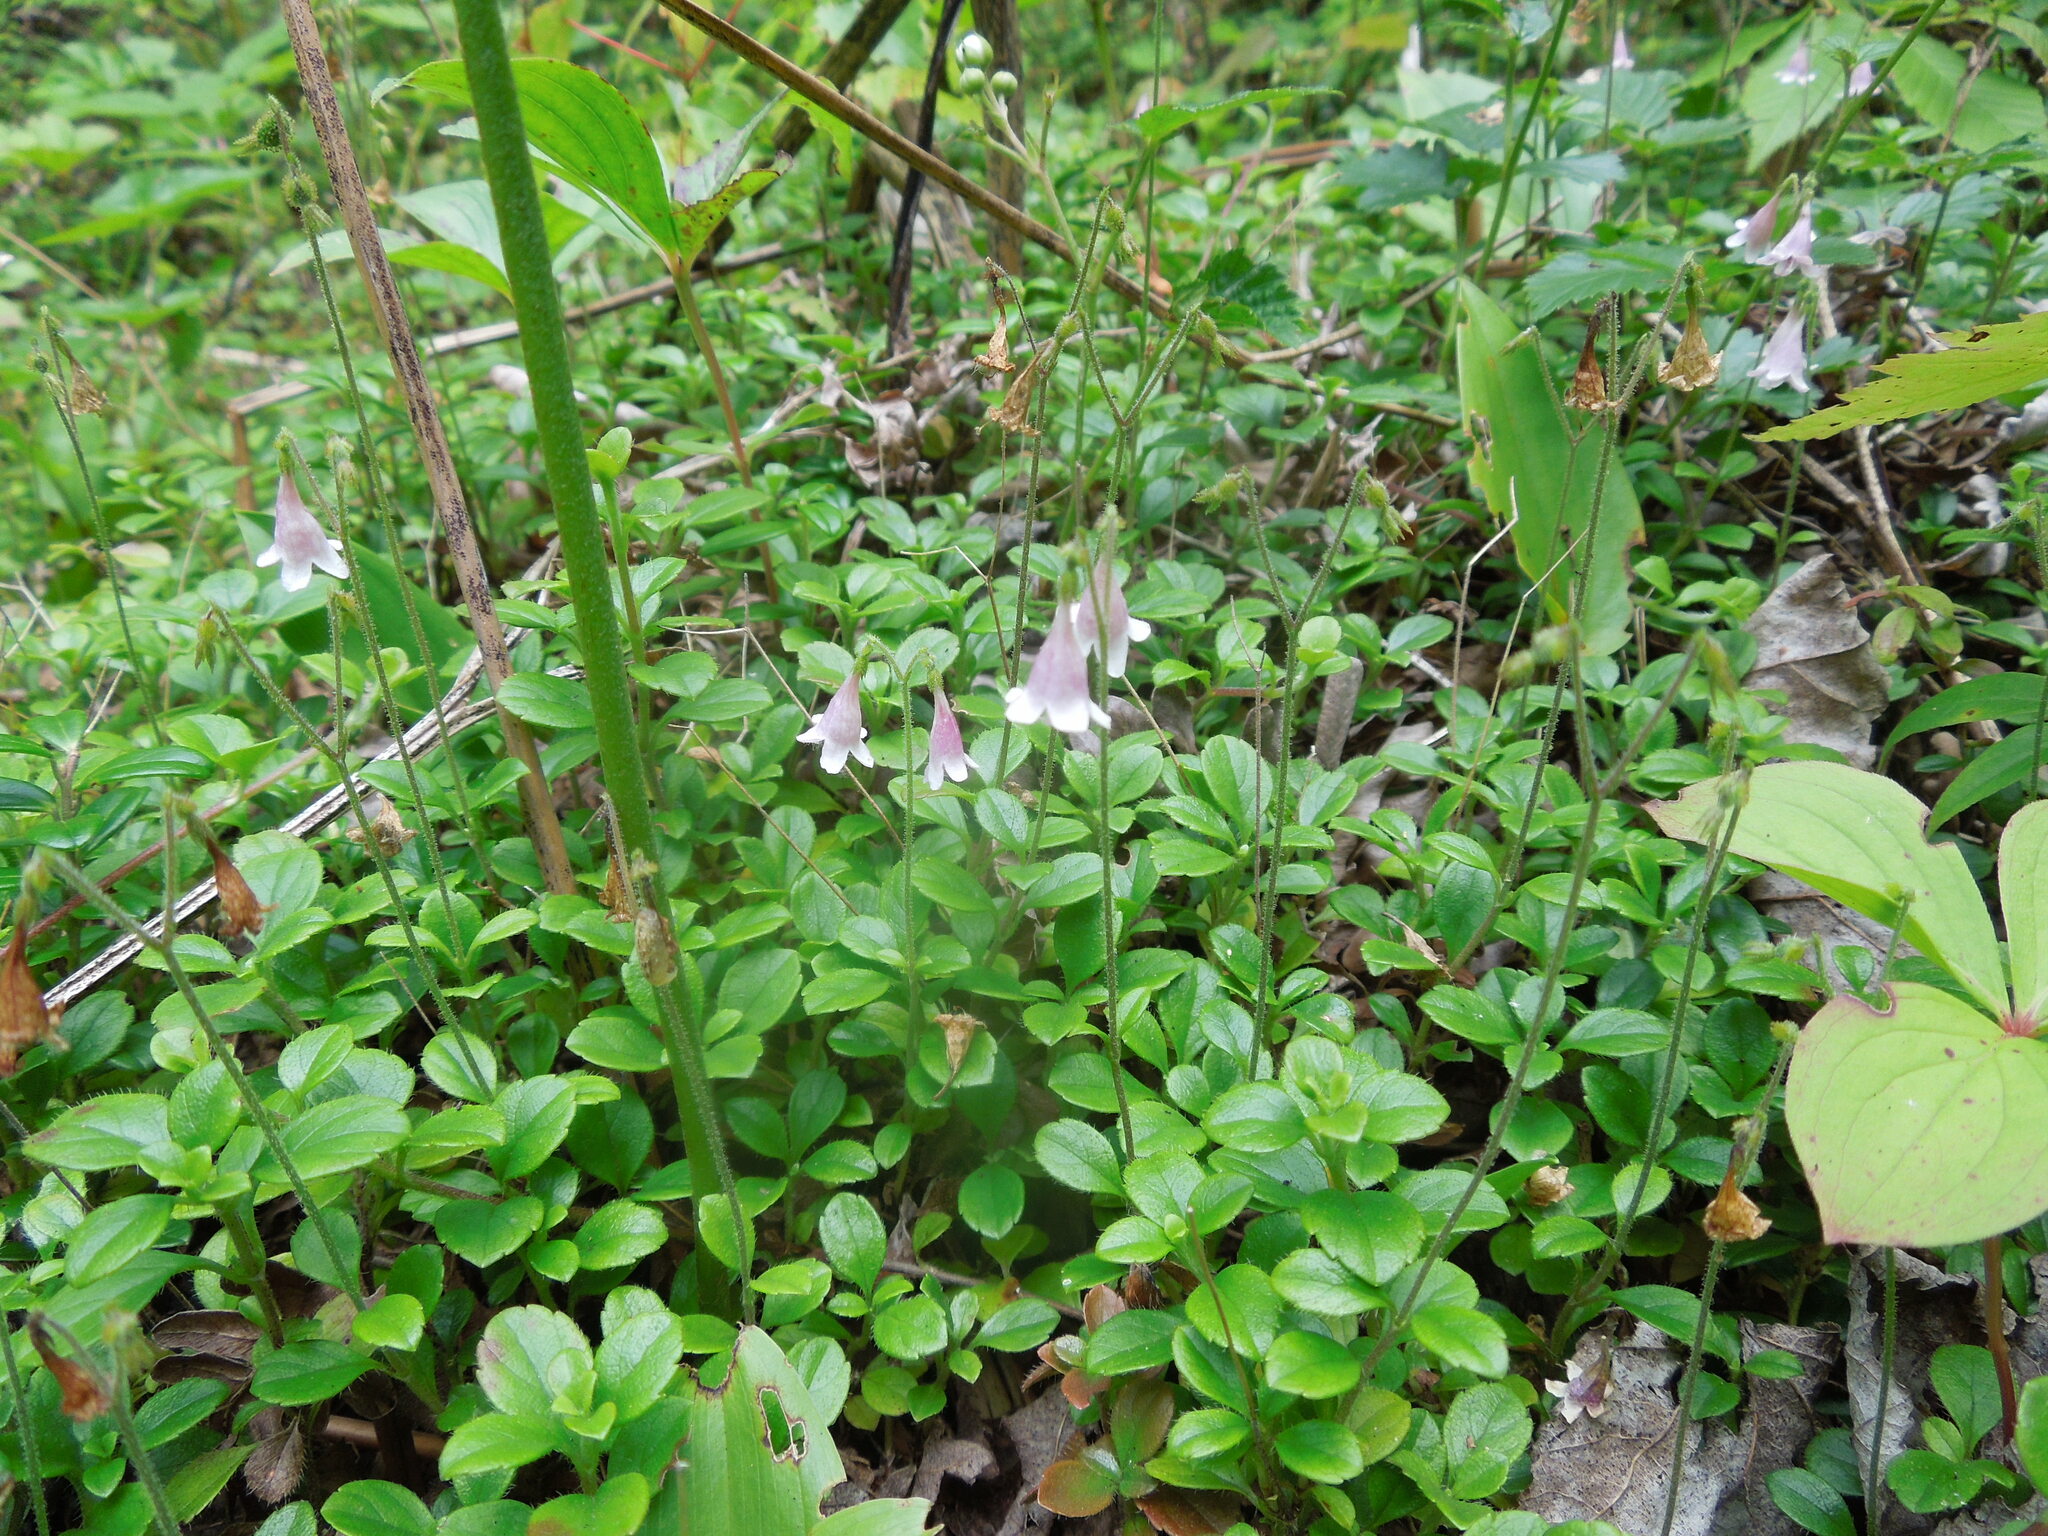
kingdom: Plantae
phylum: Tracheophyta
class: Magnoliopsida
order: Dipsacales
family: Caprifoliaceae
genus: Linnaea
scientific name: Linnaea borealis
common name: Twinflower
